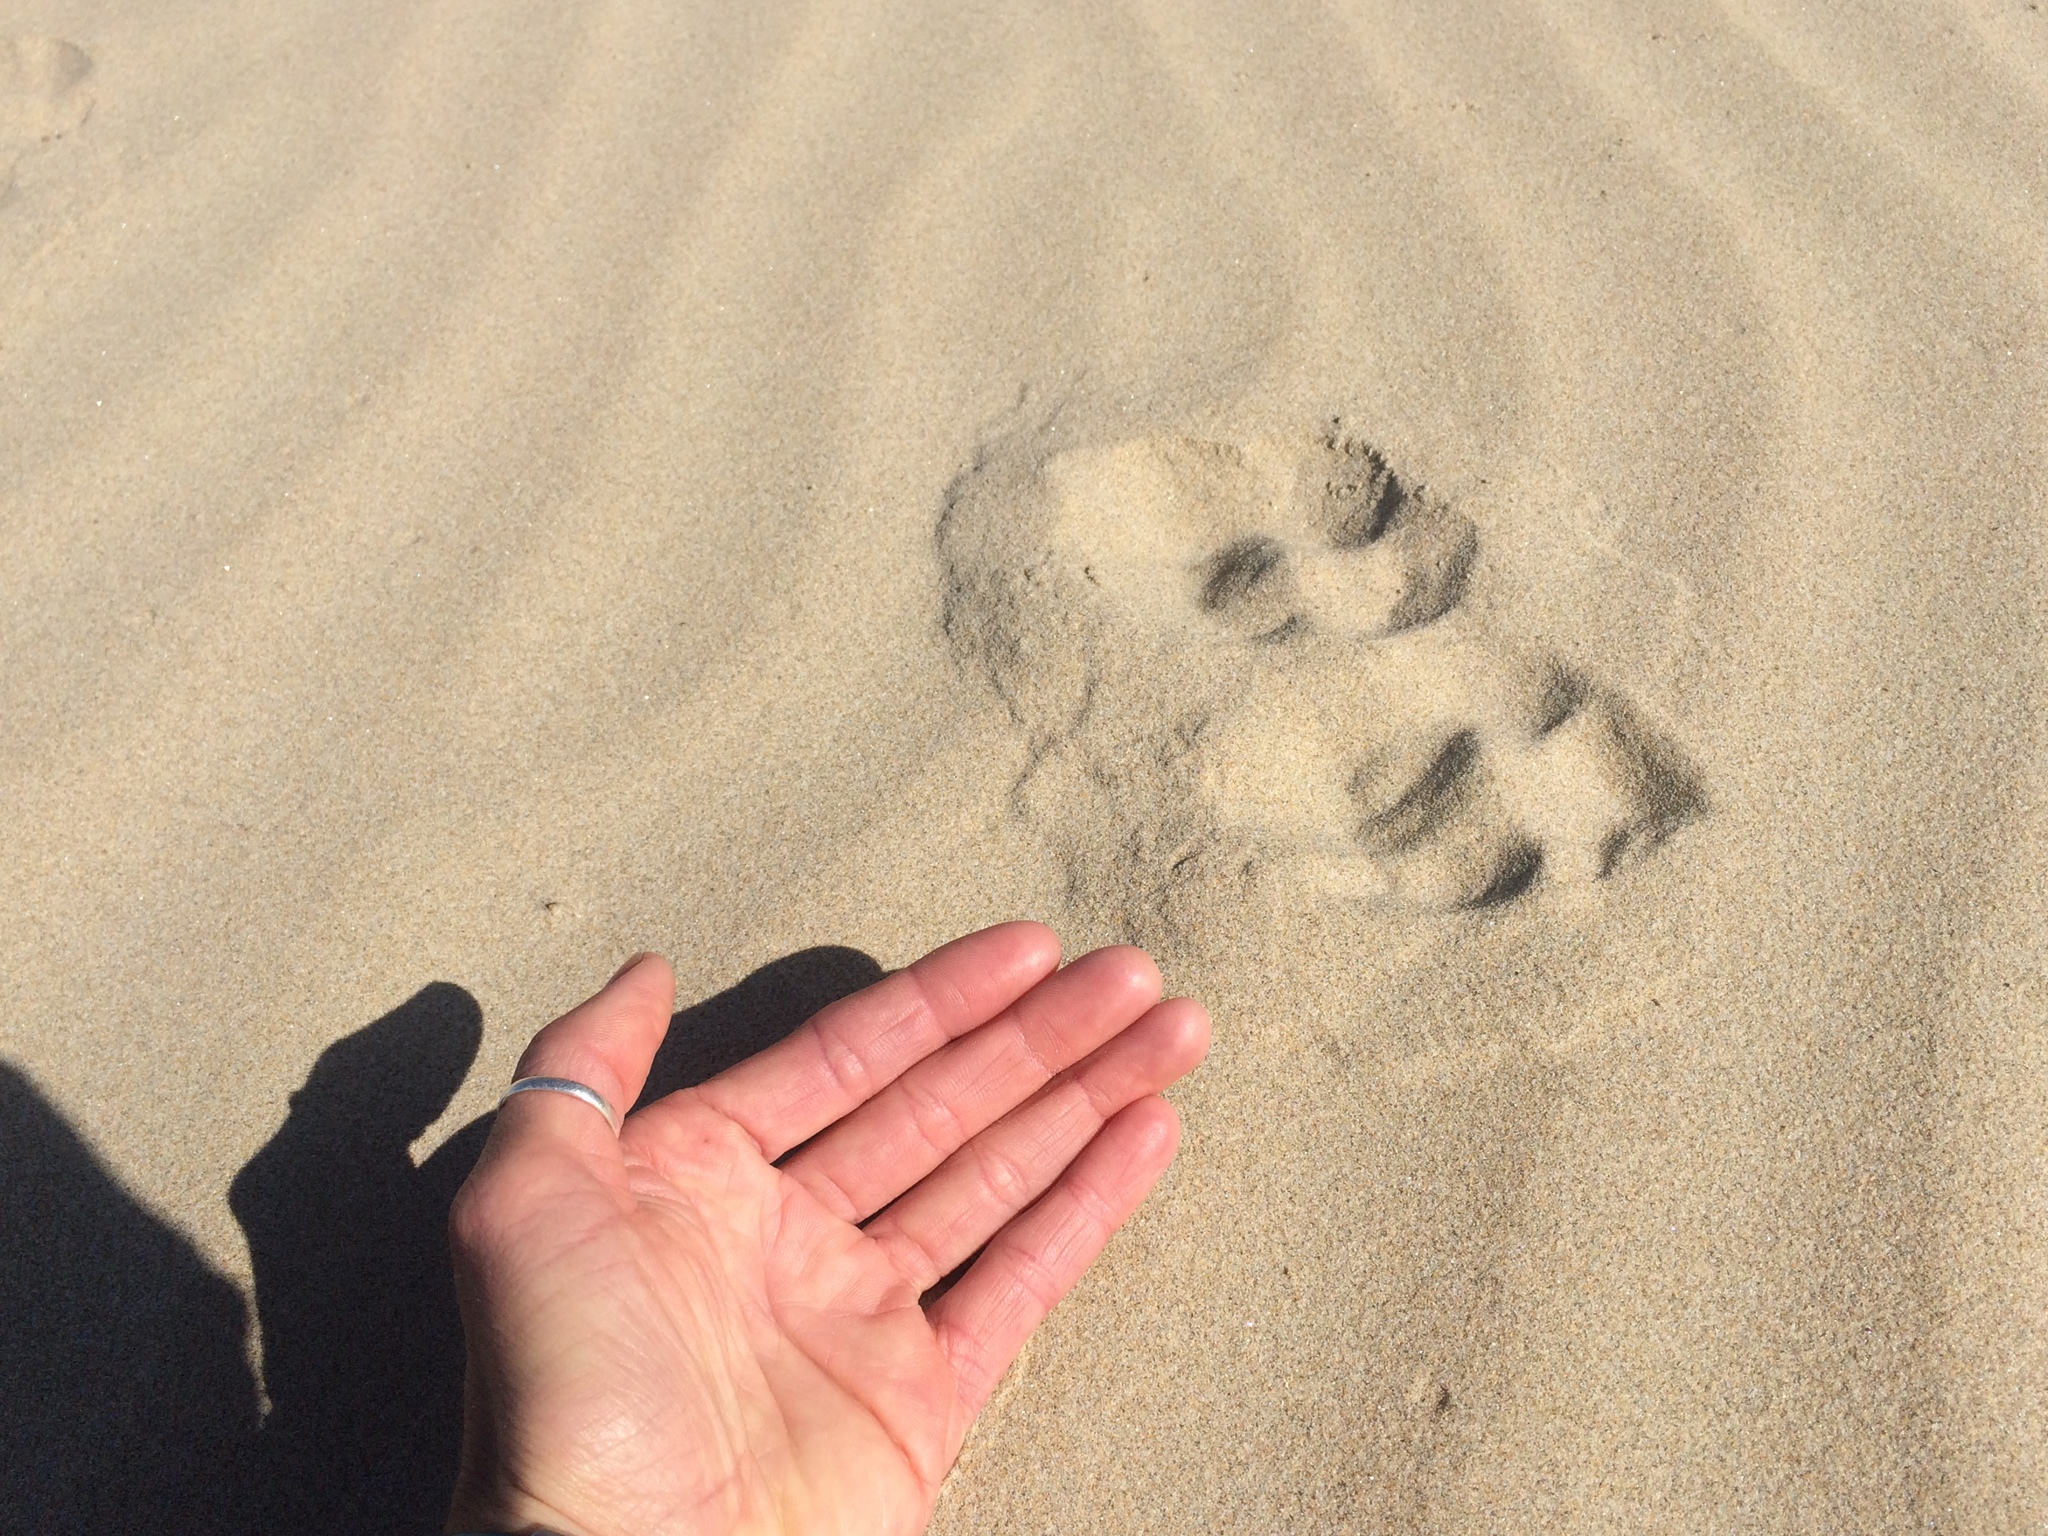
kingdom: Animalia
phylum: Chordata
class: Mammalia
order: Carnivora
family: Felidae
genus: Felis
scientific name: Felis catus
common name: Domestic cat
